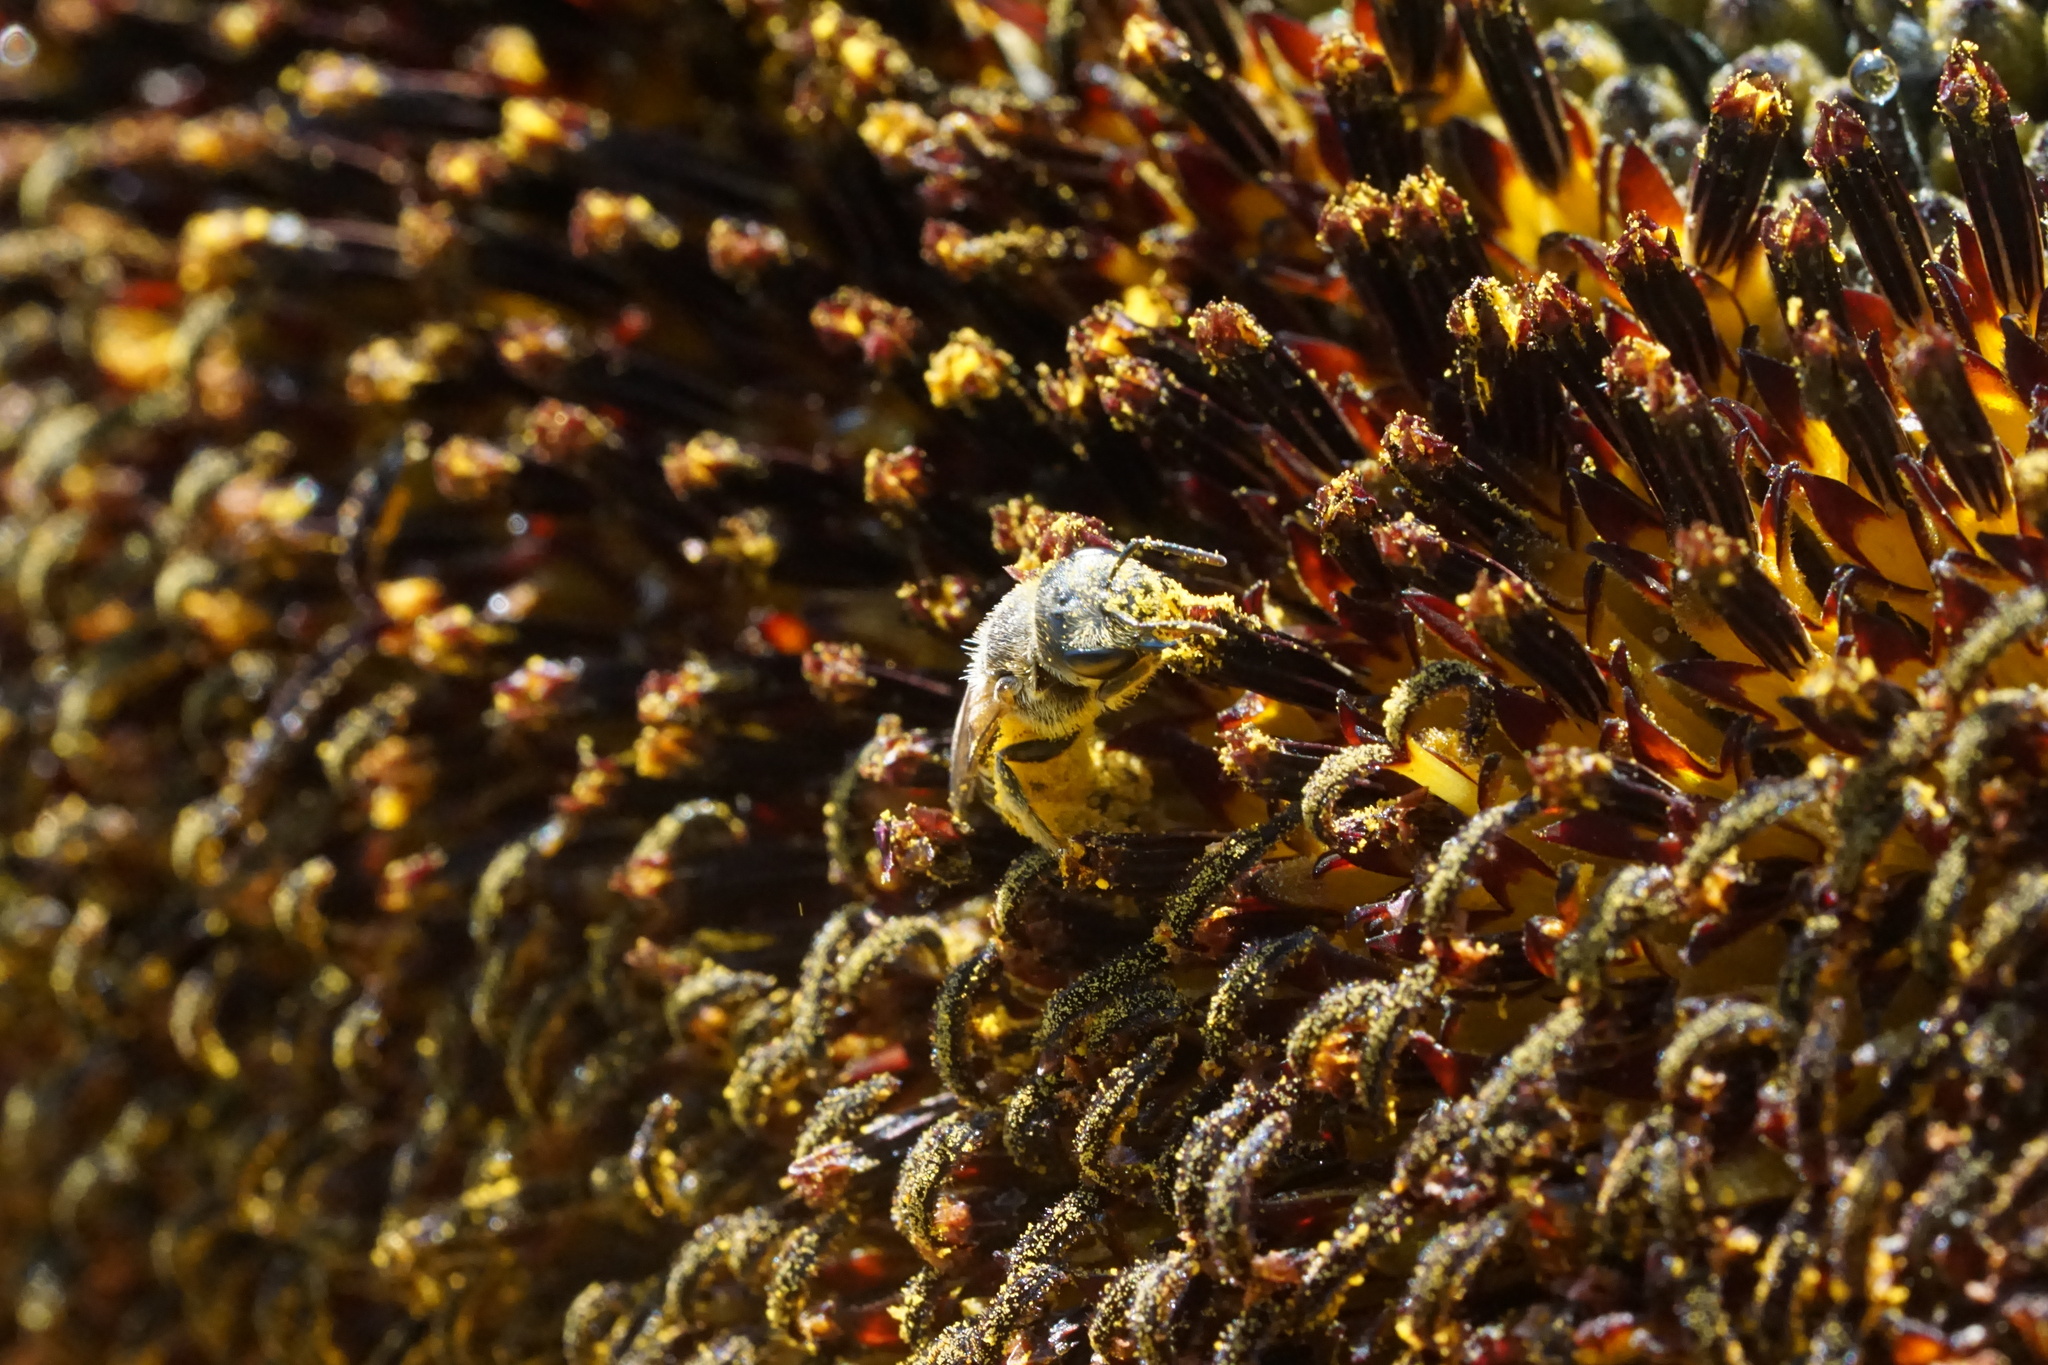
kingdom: Animalia
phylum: Arthropoda
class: Insecta
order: Hymenoptera
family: Halictidae
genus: Halictus
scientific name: Halictus ligatus
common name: Ligated furrow bee
